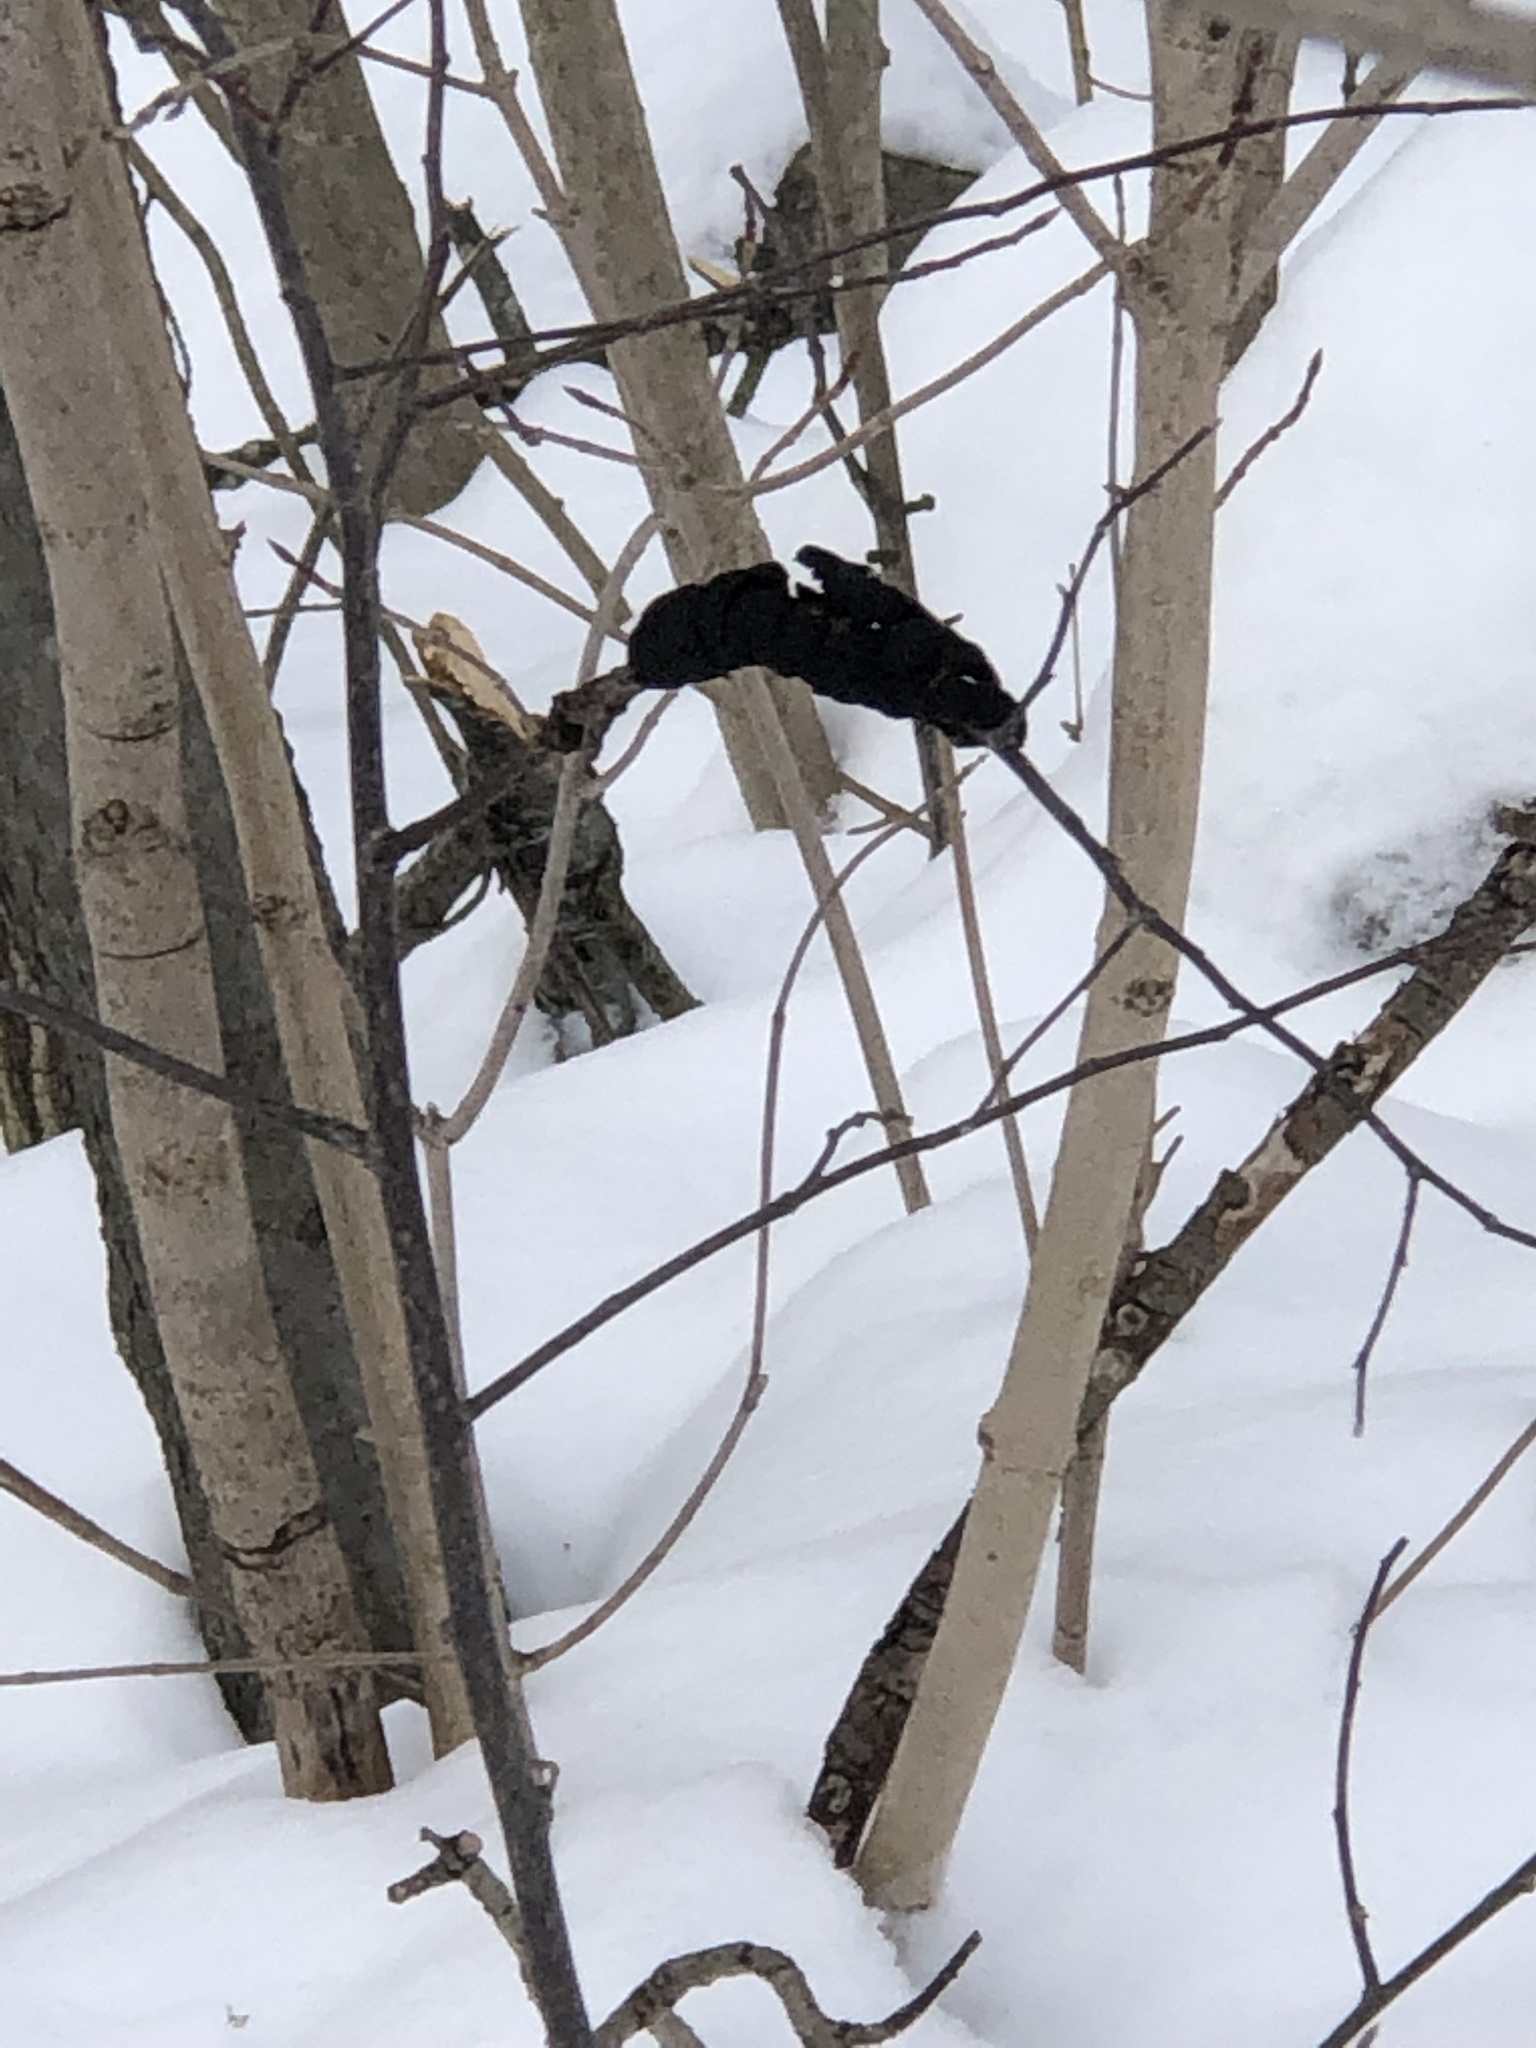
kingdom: Fungi
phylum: Ascomycota
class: Dothideomycetes
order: Venturiales
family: Venturiaceae
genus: Apiosporina
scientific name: Apiosporina morbosa
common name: Black knot
